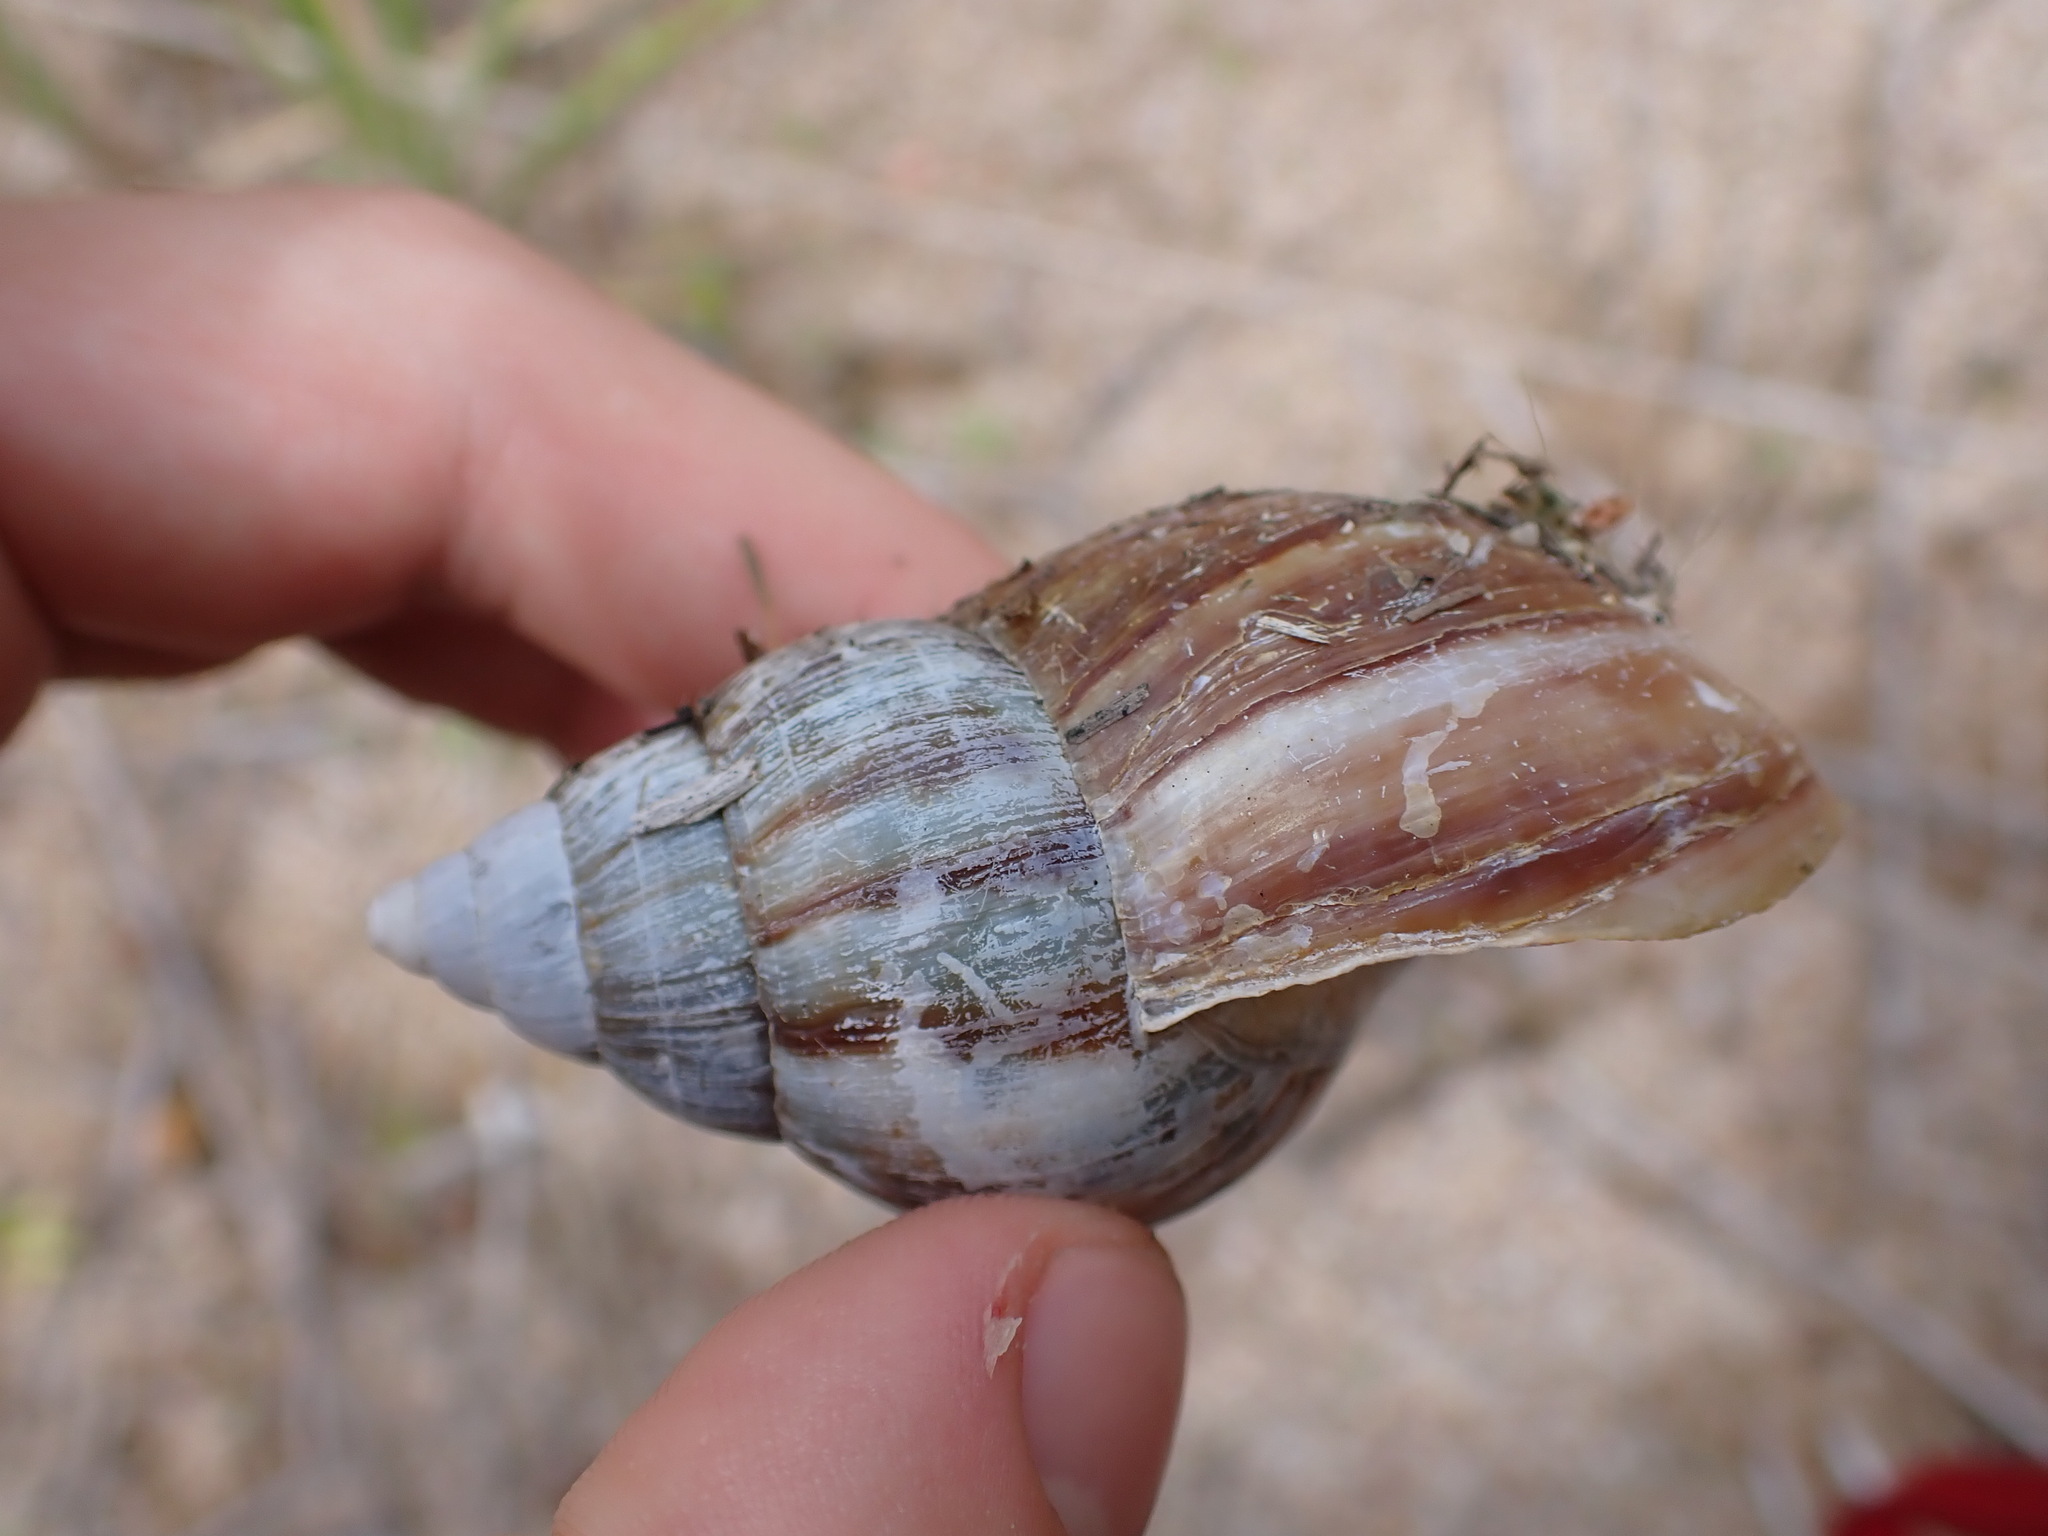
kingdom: Animalia
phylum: Mollusca
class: Gastropoda
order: Stylommatophora
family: Achatinidae
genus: Lissachatina
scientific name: Lissachatina fulica
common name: Giant african snail
